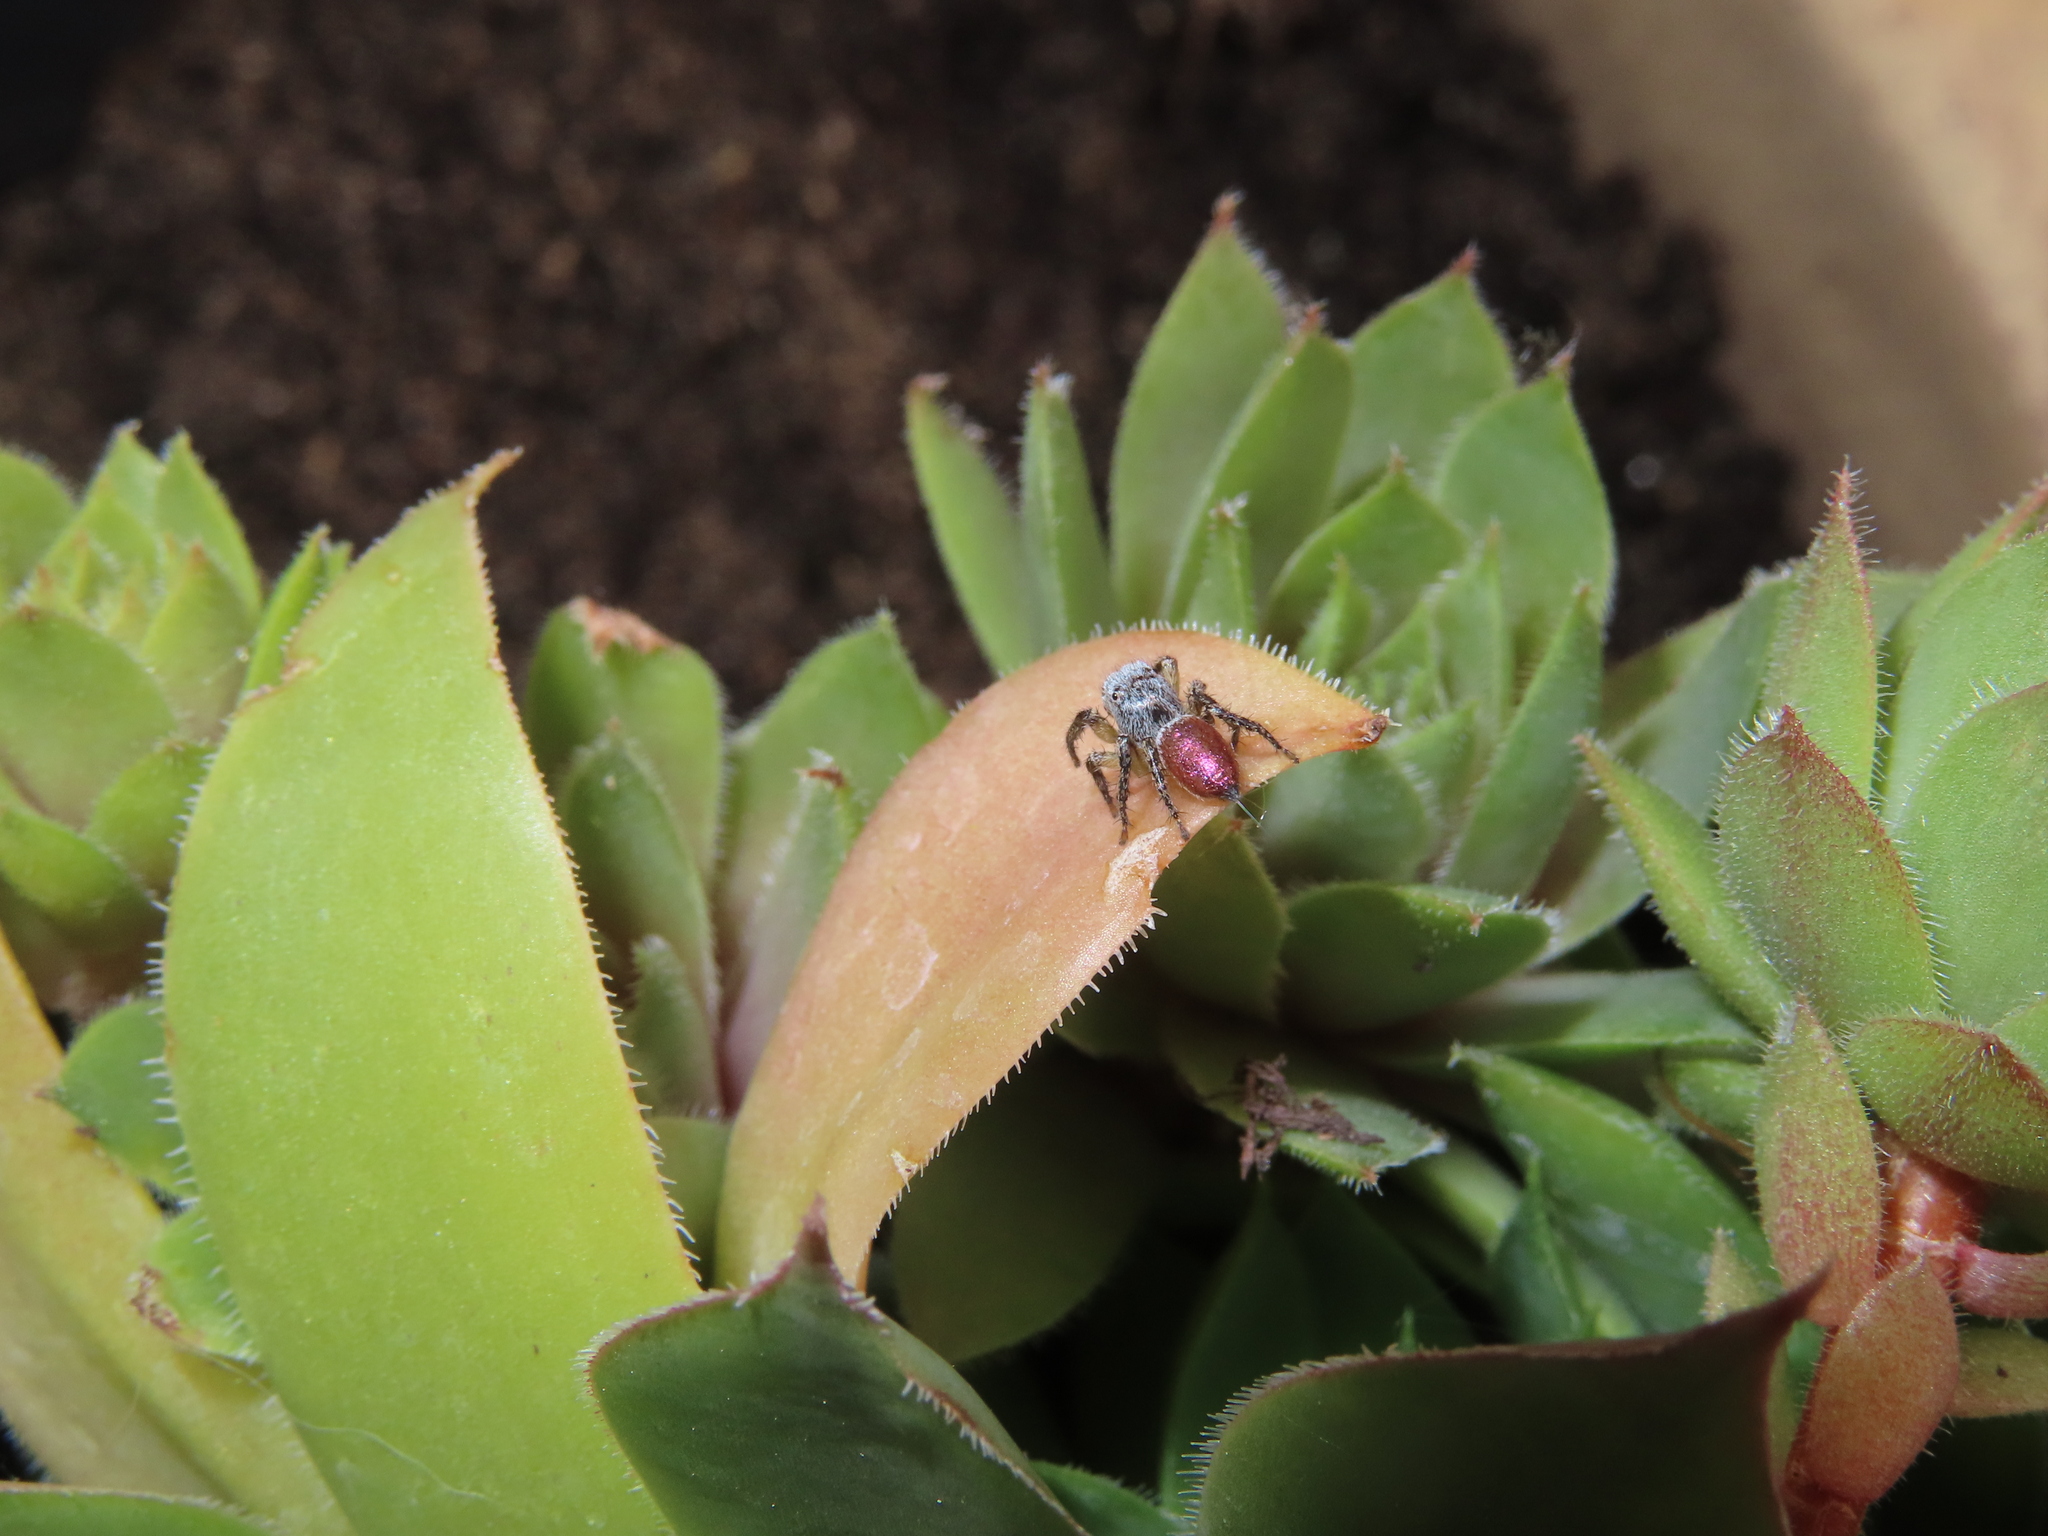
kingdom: Animalia
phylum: Arthropoda
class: Arachnida
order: Araneae
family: Salticidae
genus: Habronattus
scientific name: Habronattus decorus
